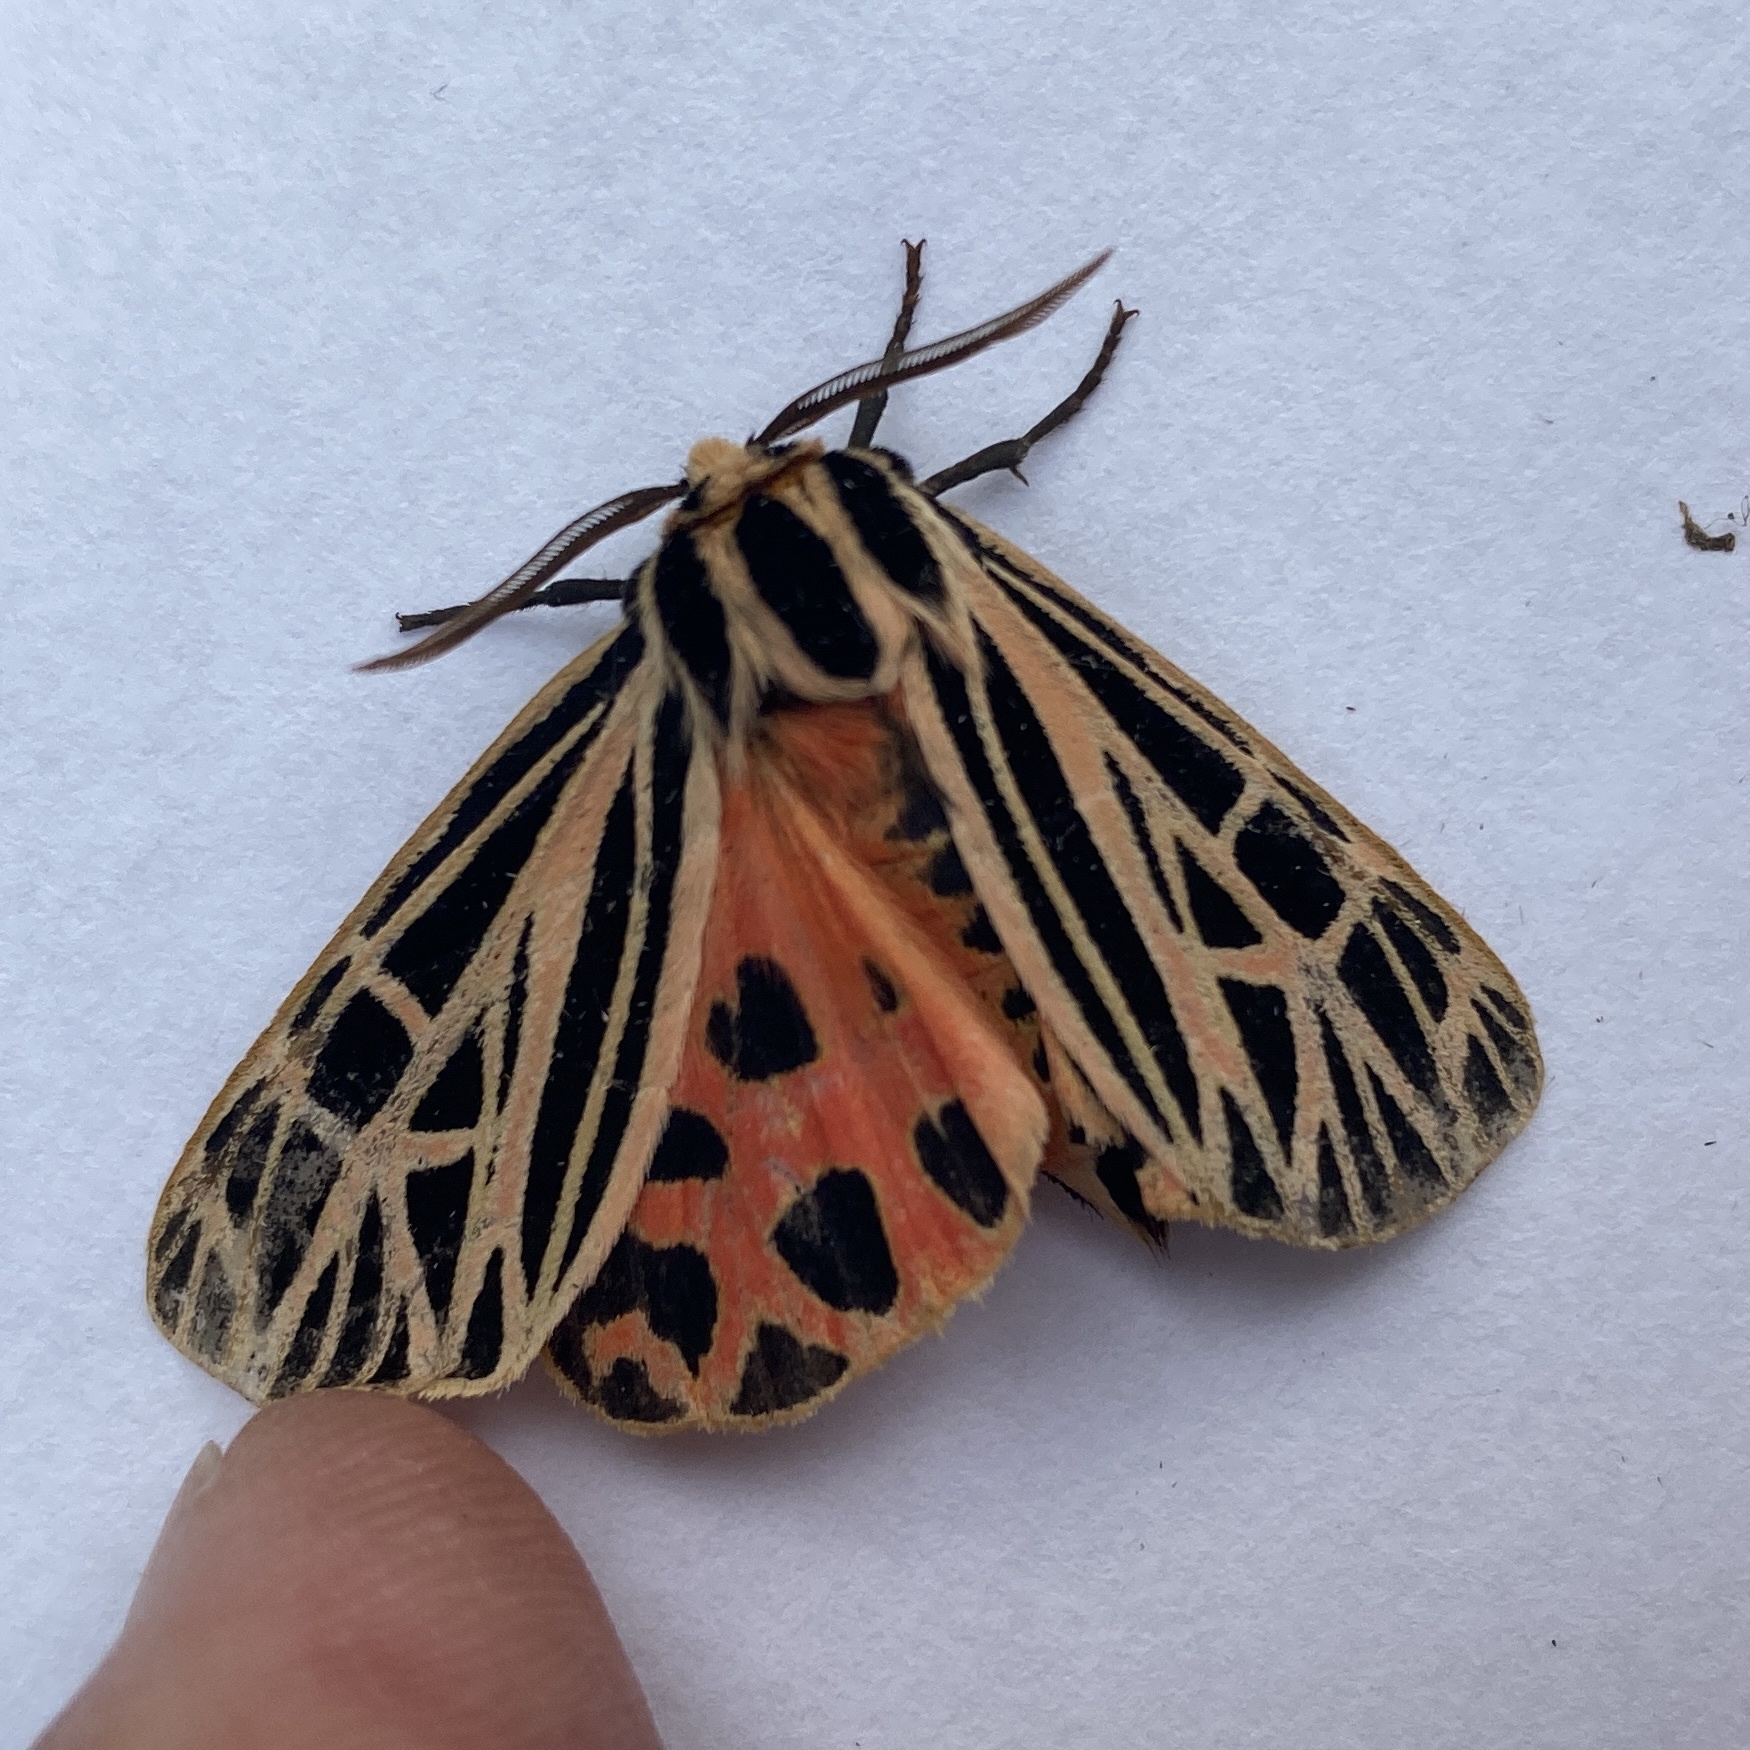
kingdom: Animalia
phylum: Arthropoda
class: Insecta
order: Lepidoptera
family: Erebidae
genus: Grammia
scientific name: Grammia virgo
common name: Virgin tiger moth
